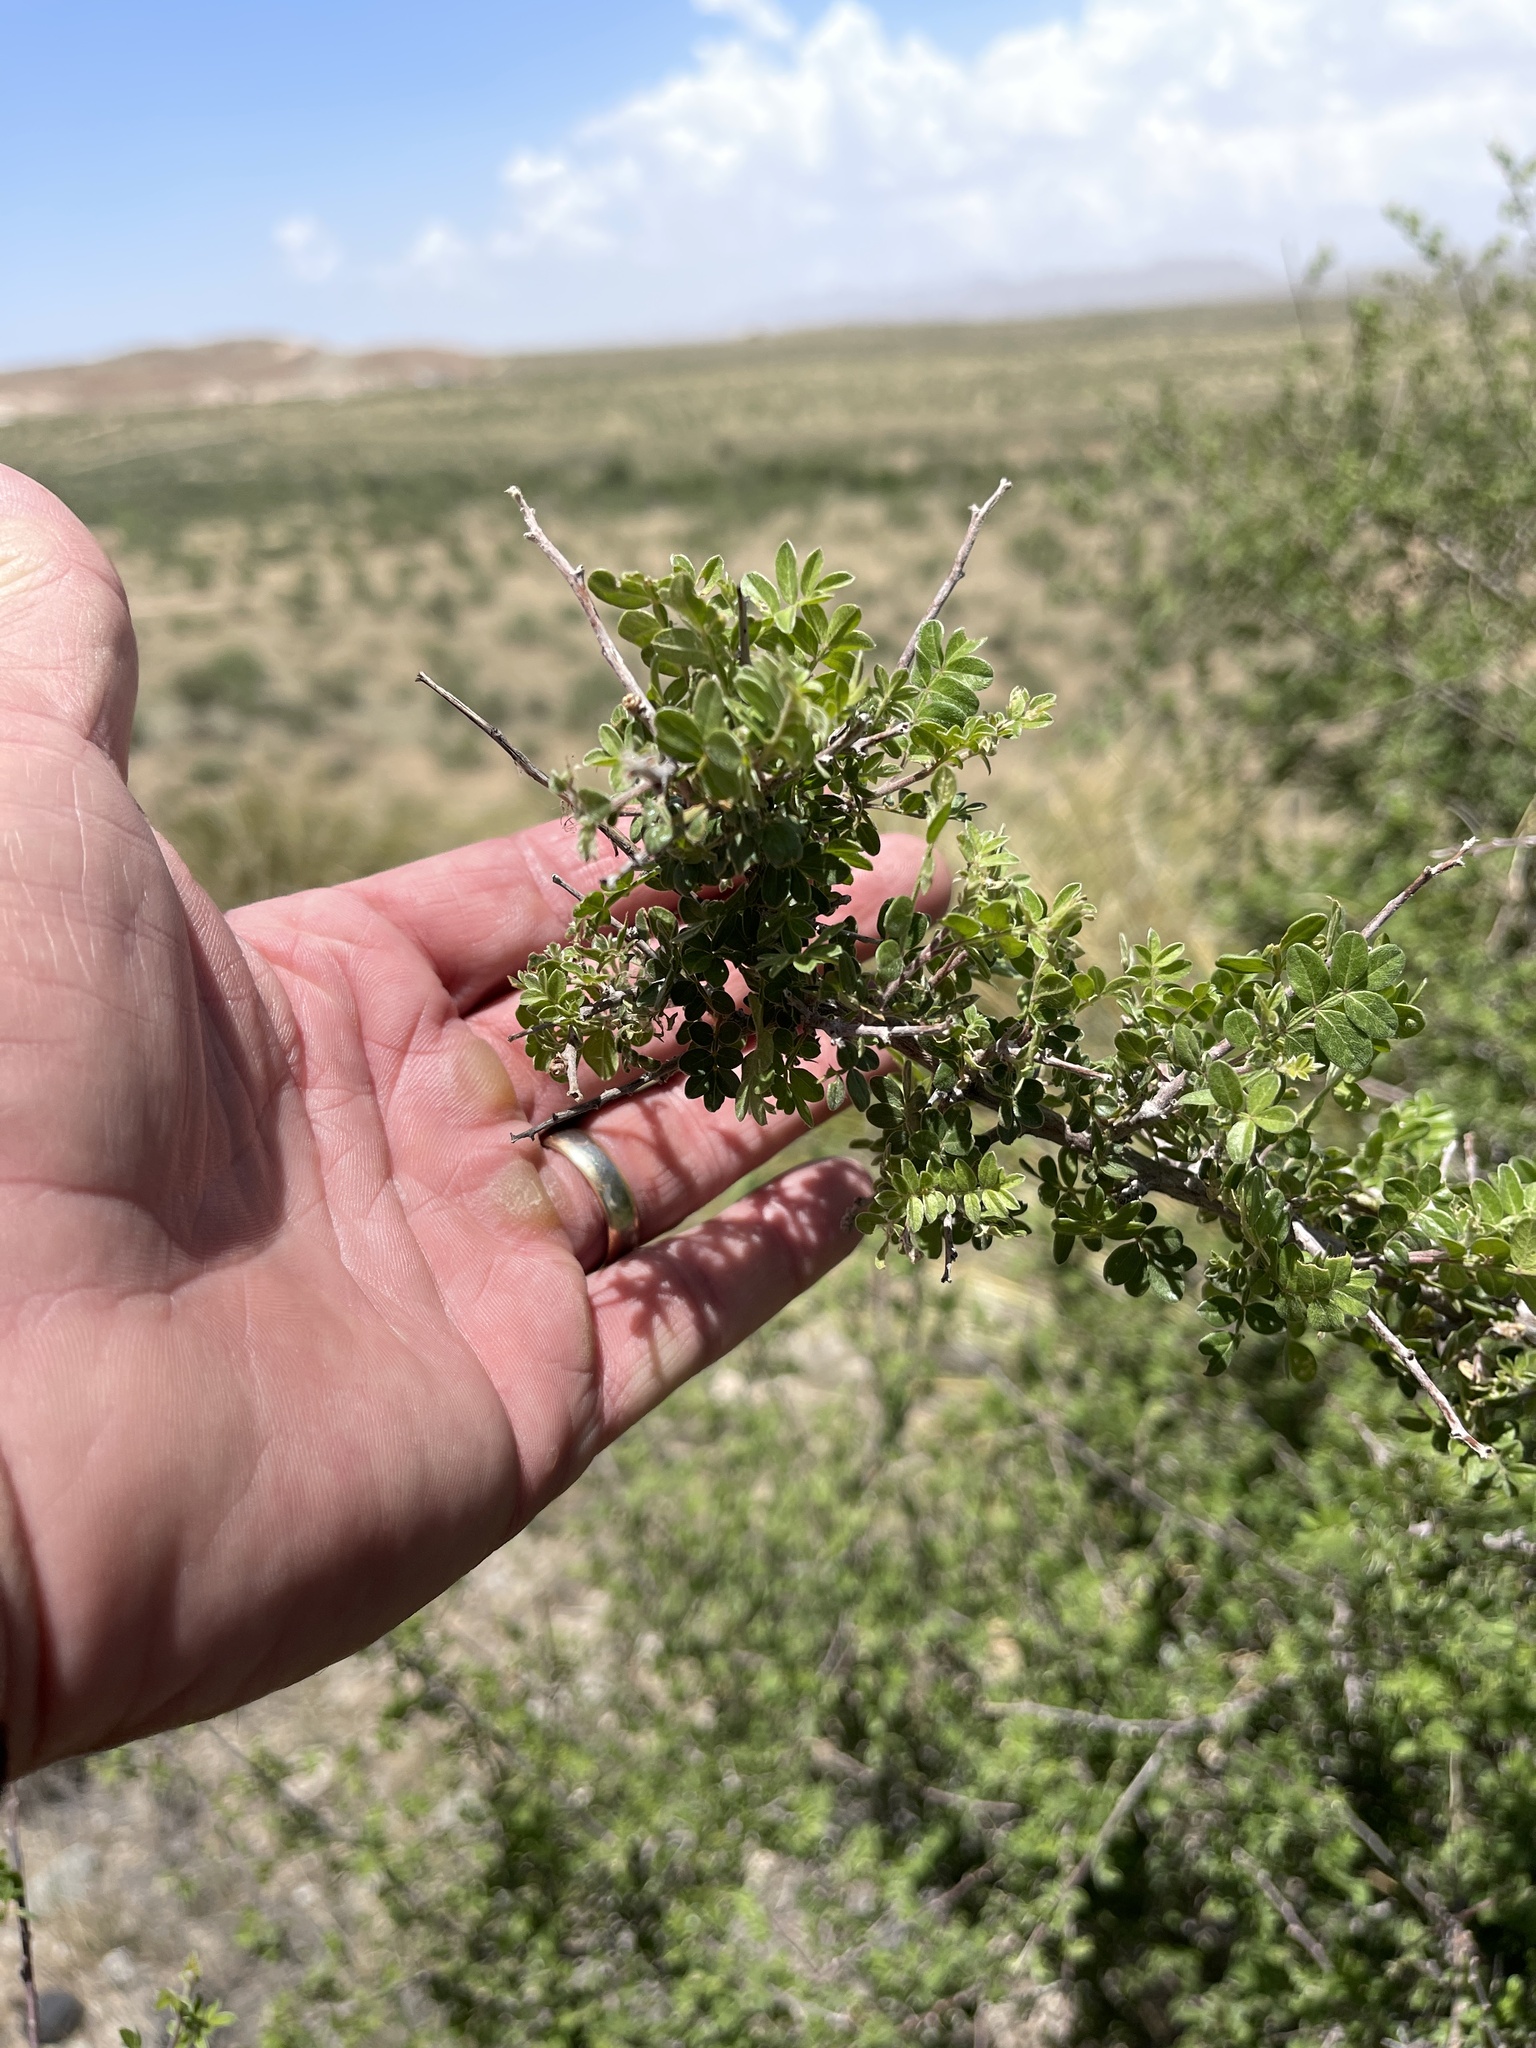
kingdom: Plantae
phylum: Tracheophyta
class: Magnoliopsida
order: Sapindales
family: Anacardiaceae
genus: Rhus
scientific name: Rhus microphylla
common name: Desert sumac
